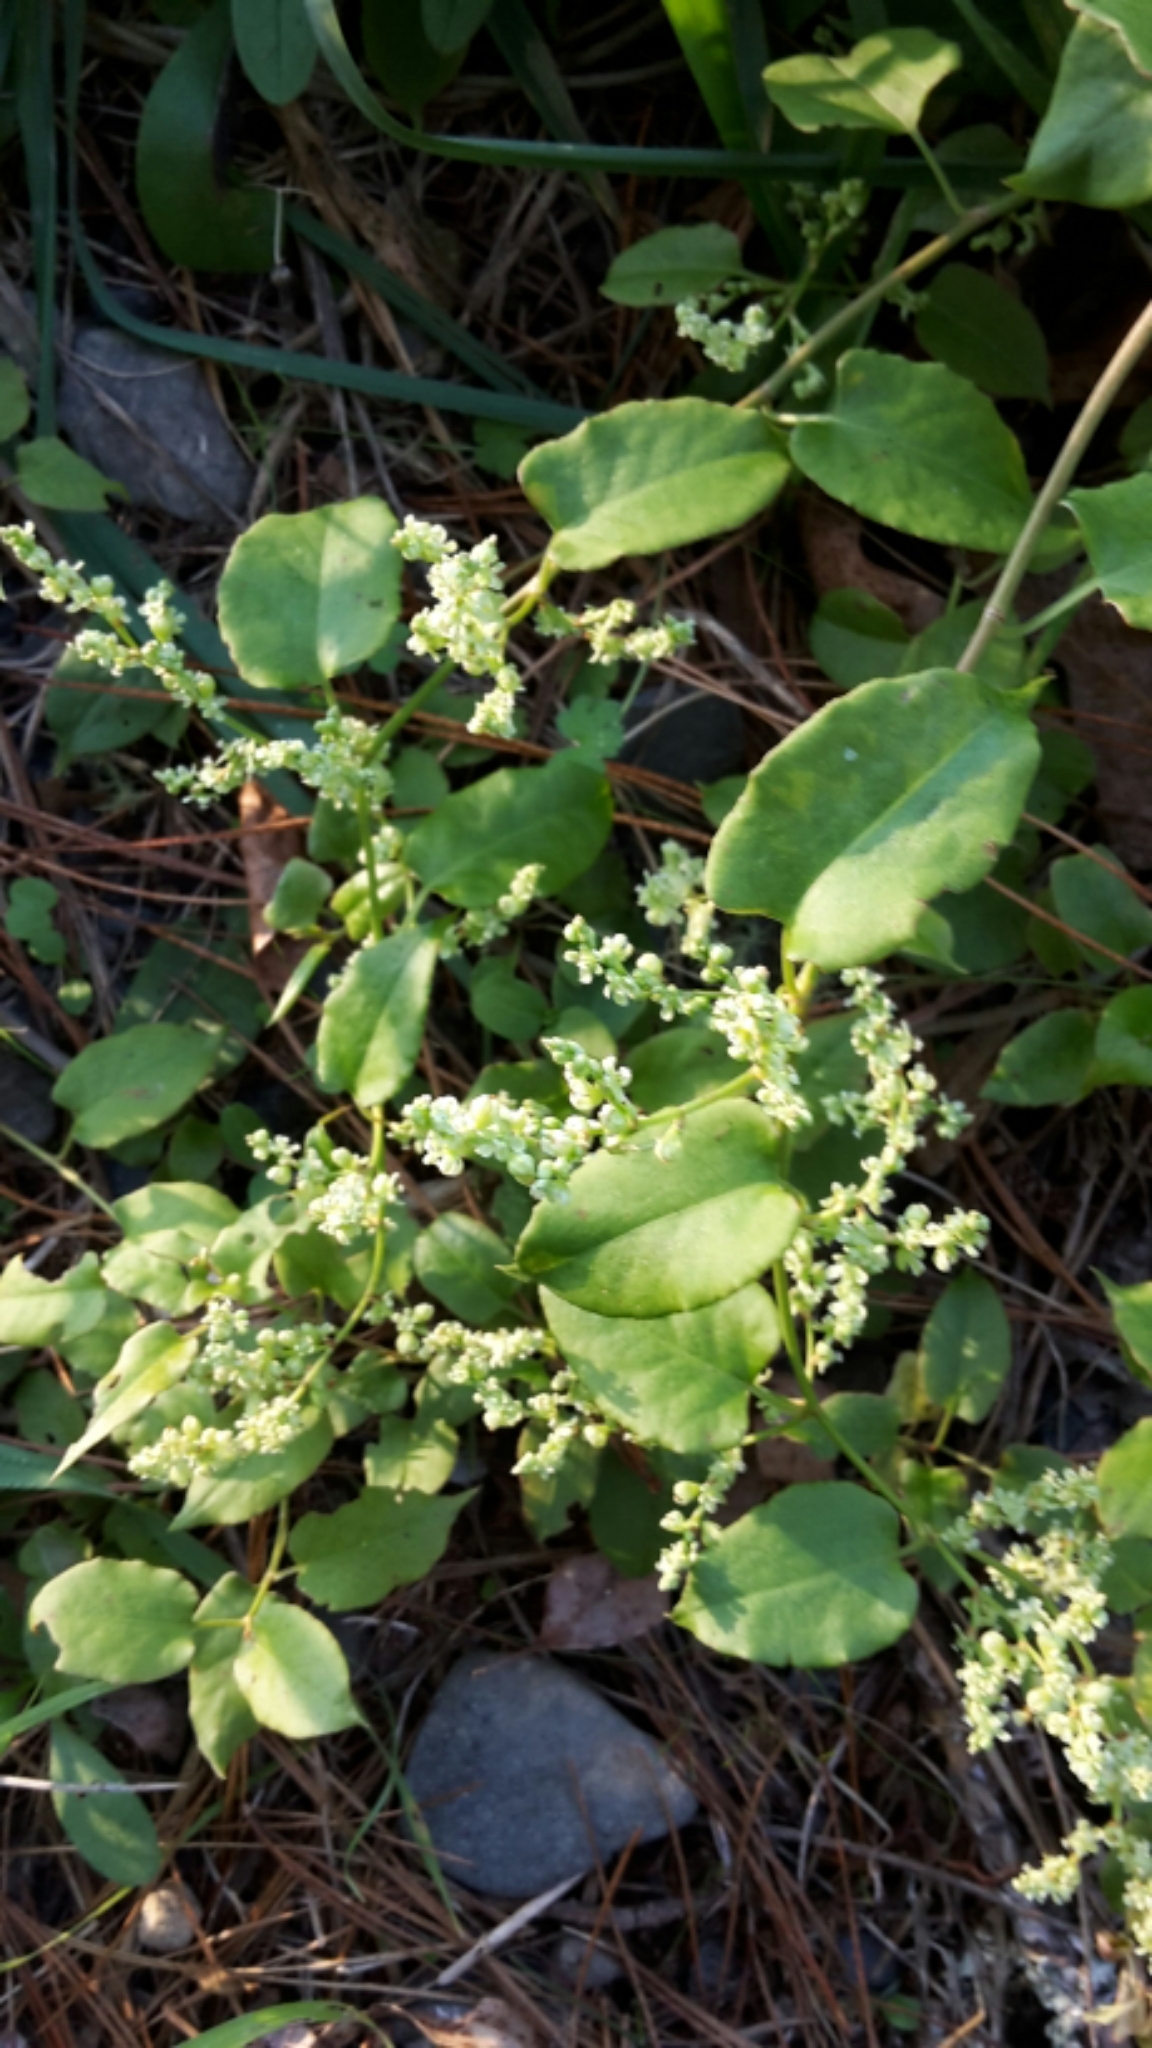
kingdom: Plantae
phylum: Tracheophyta
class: Magnoliopsida
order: Caryophyllales
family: Polygonaceae
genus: Muehlenbeckia
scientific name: Muehlenbeckia australis
